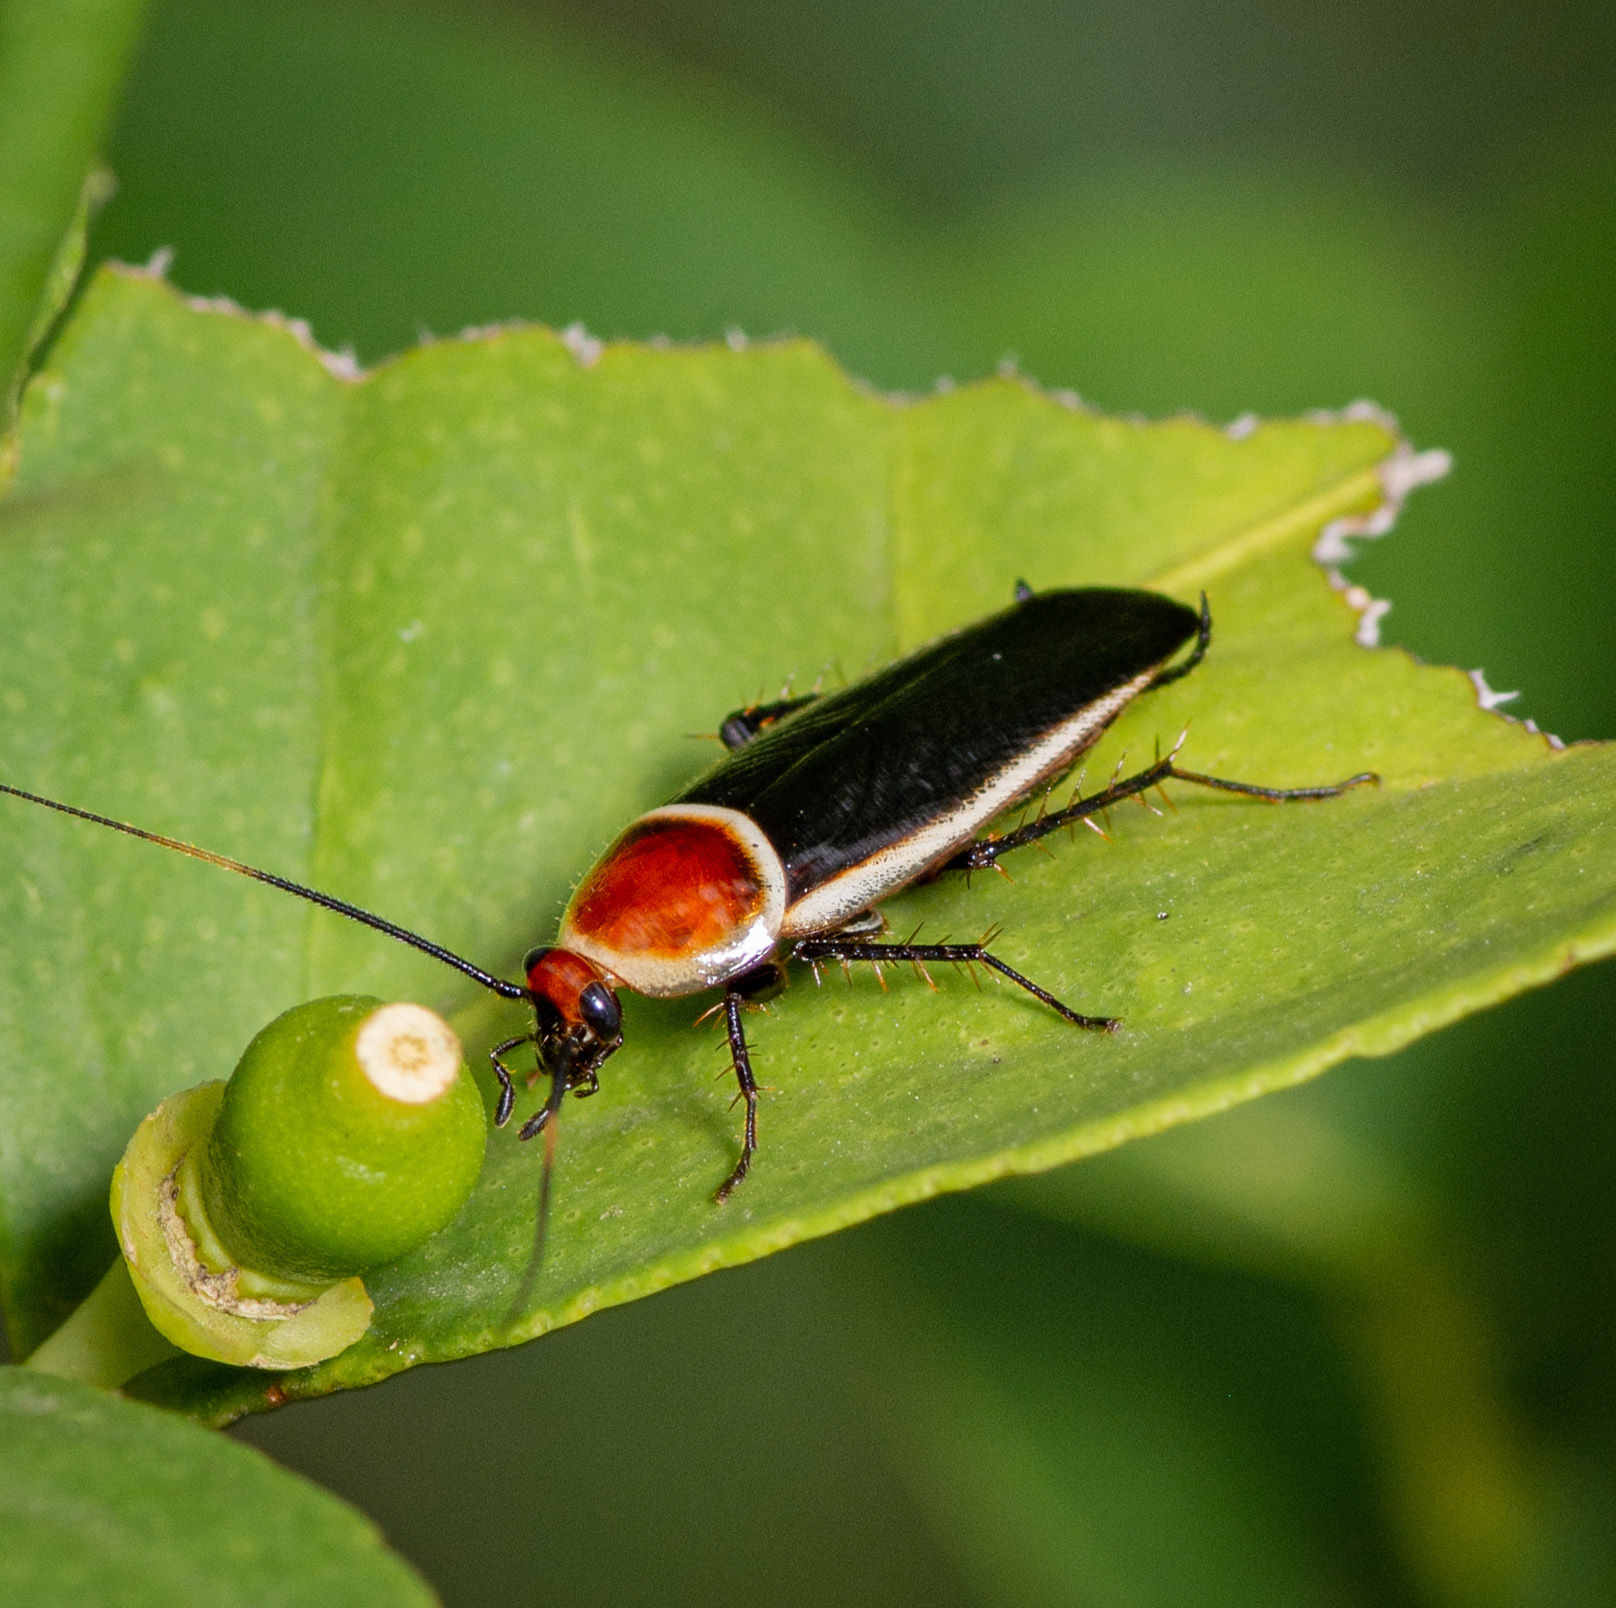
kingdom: Animalia
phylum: Arthropoda
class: Insecta
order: Blattodea
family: Ectobiidae
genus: Pseudomops
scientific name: Pseudomops septentrionalis
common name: Pale-bordered field cockroach
